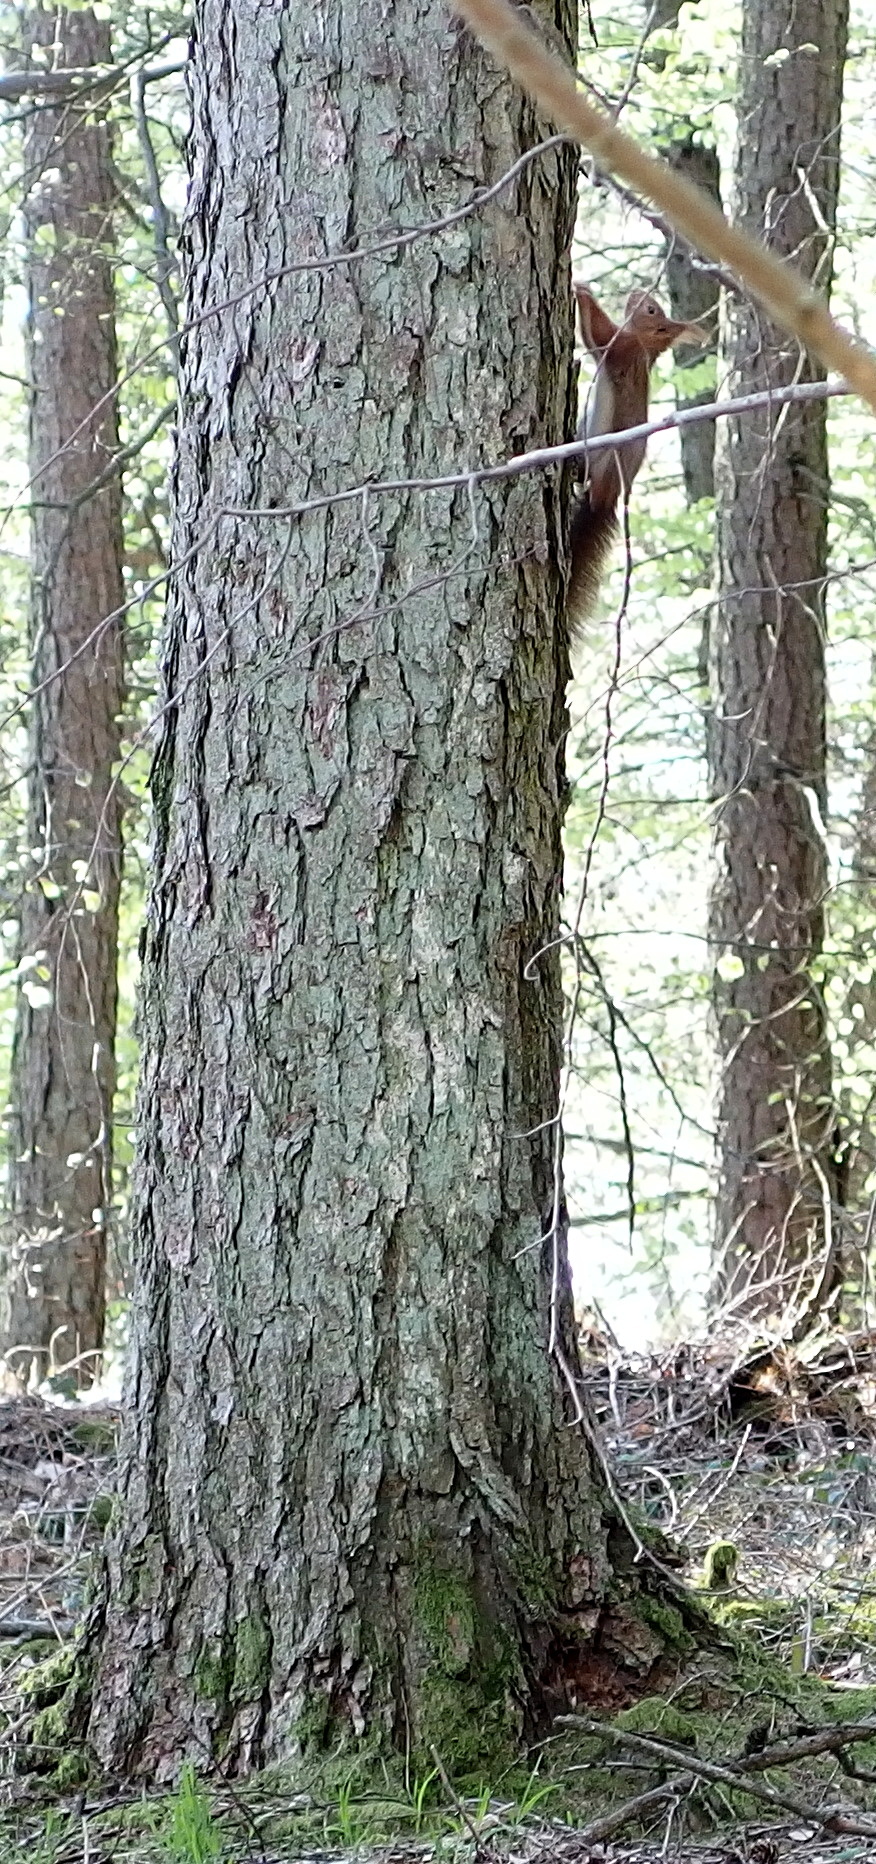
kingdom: Animalia
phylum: Chordata
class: Mammalia
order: Rodentia
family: Sciuridae
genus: Sciurus
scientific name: Sciurus vulgaris
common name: Eurasian red squirrel
